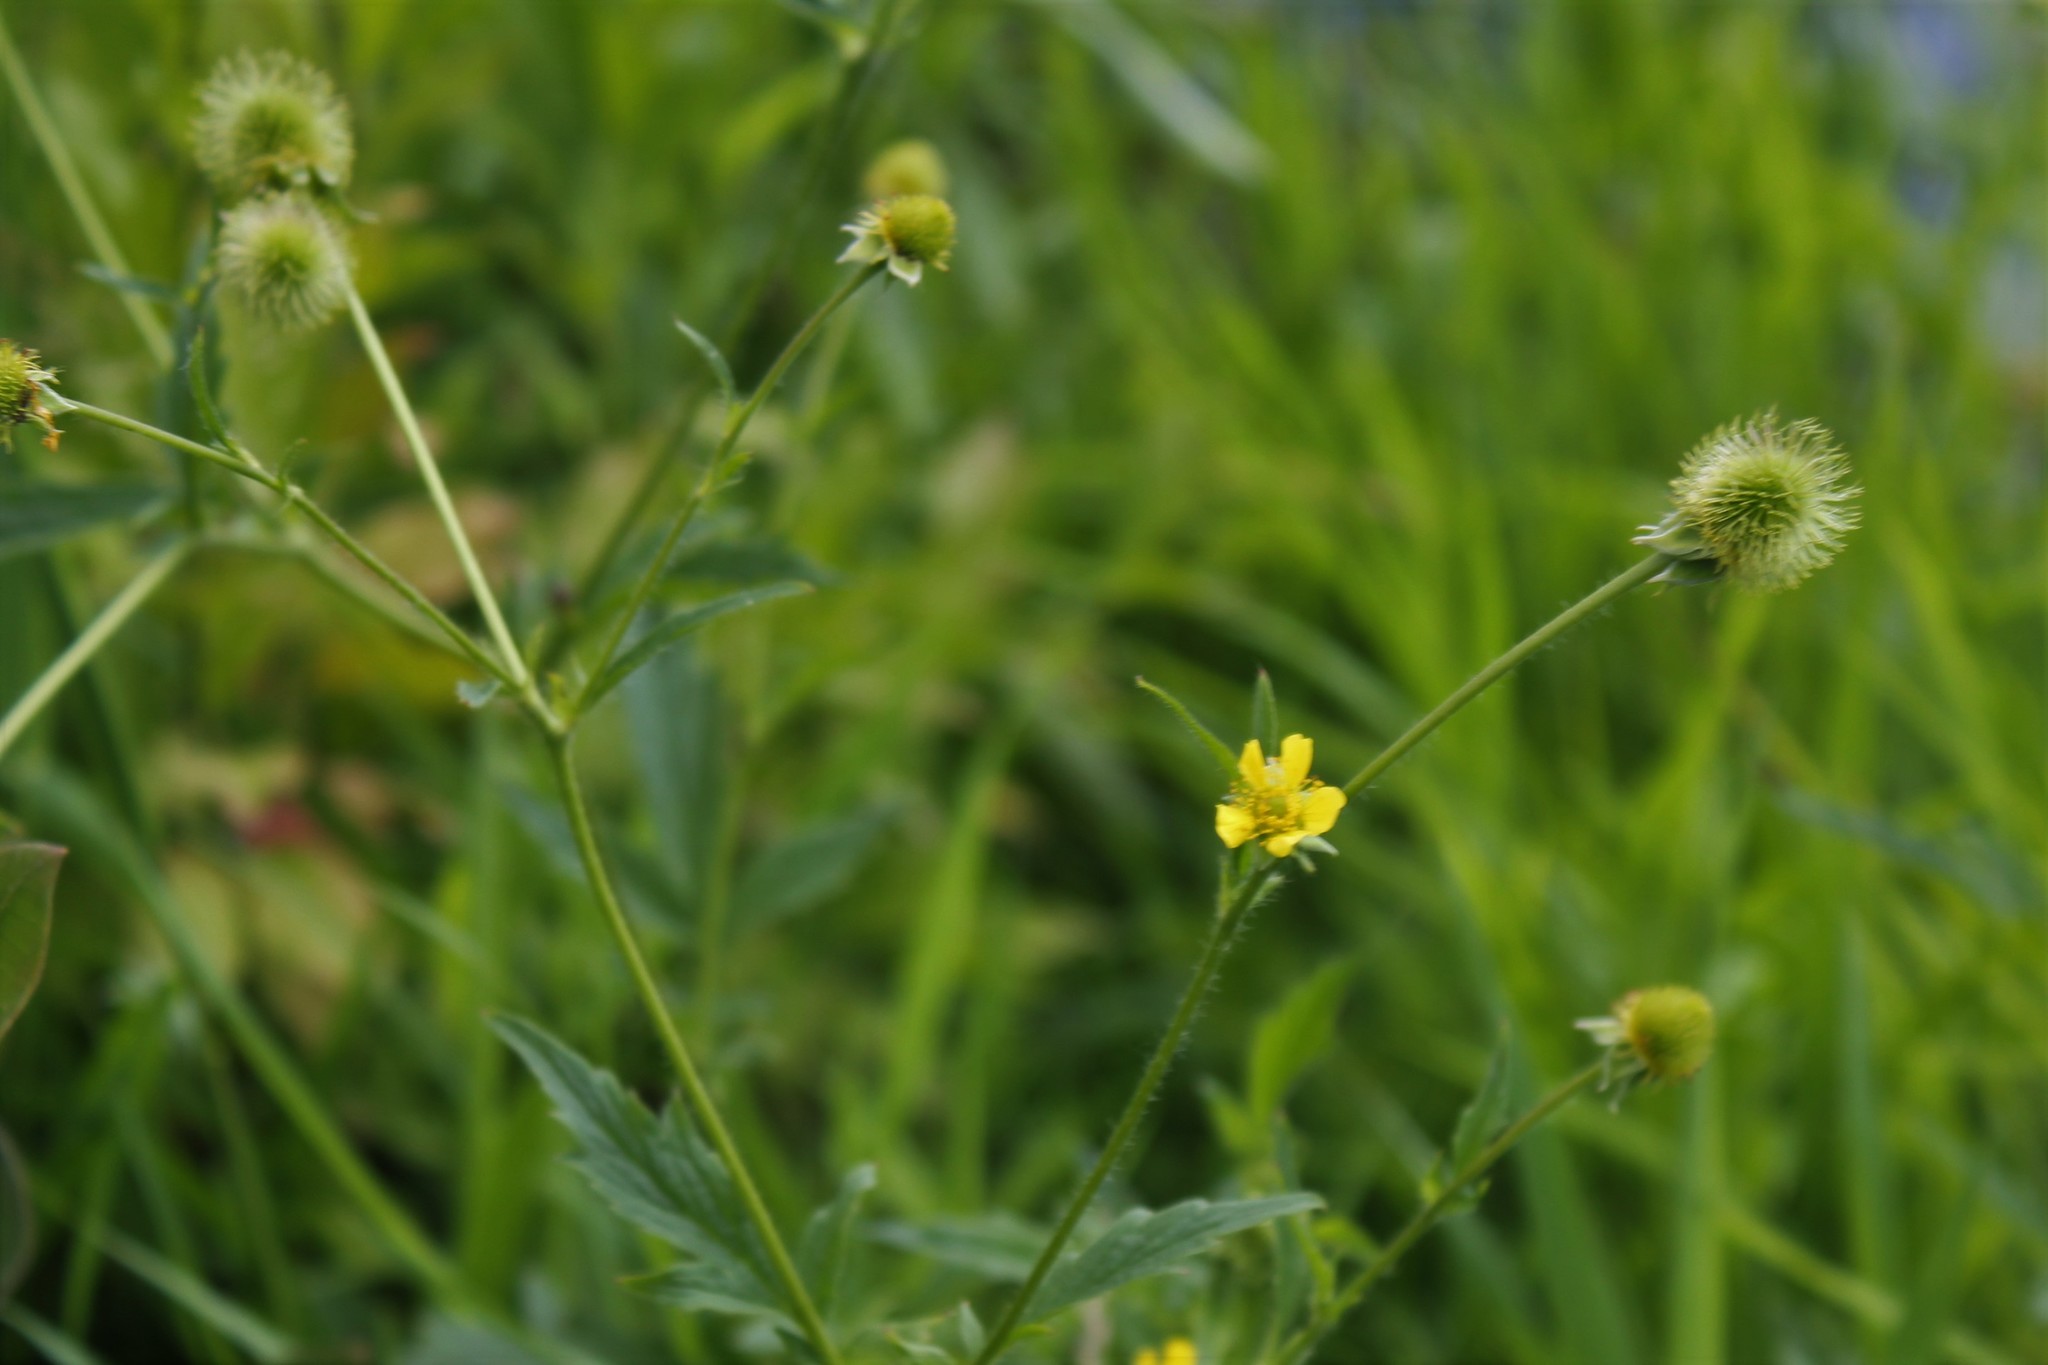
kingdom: Plantae
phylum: Tracheophyta
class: Magnoliopsida
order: Rosales
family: Rosaceae
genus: Geum
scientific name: Geum aleppicum
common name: Yellow avens
